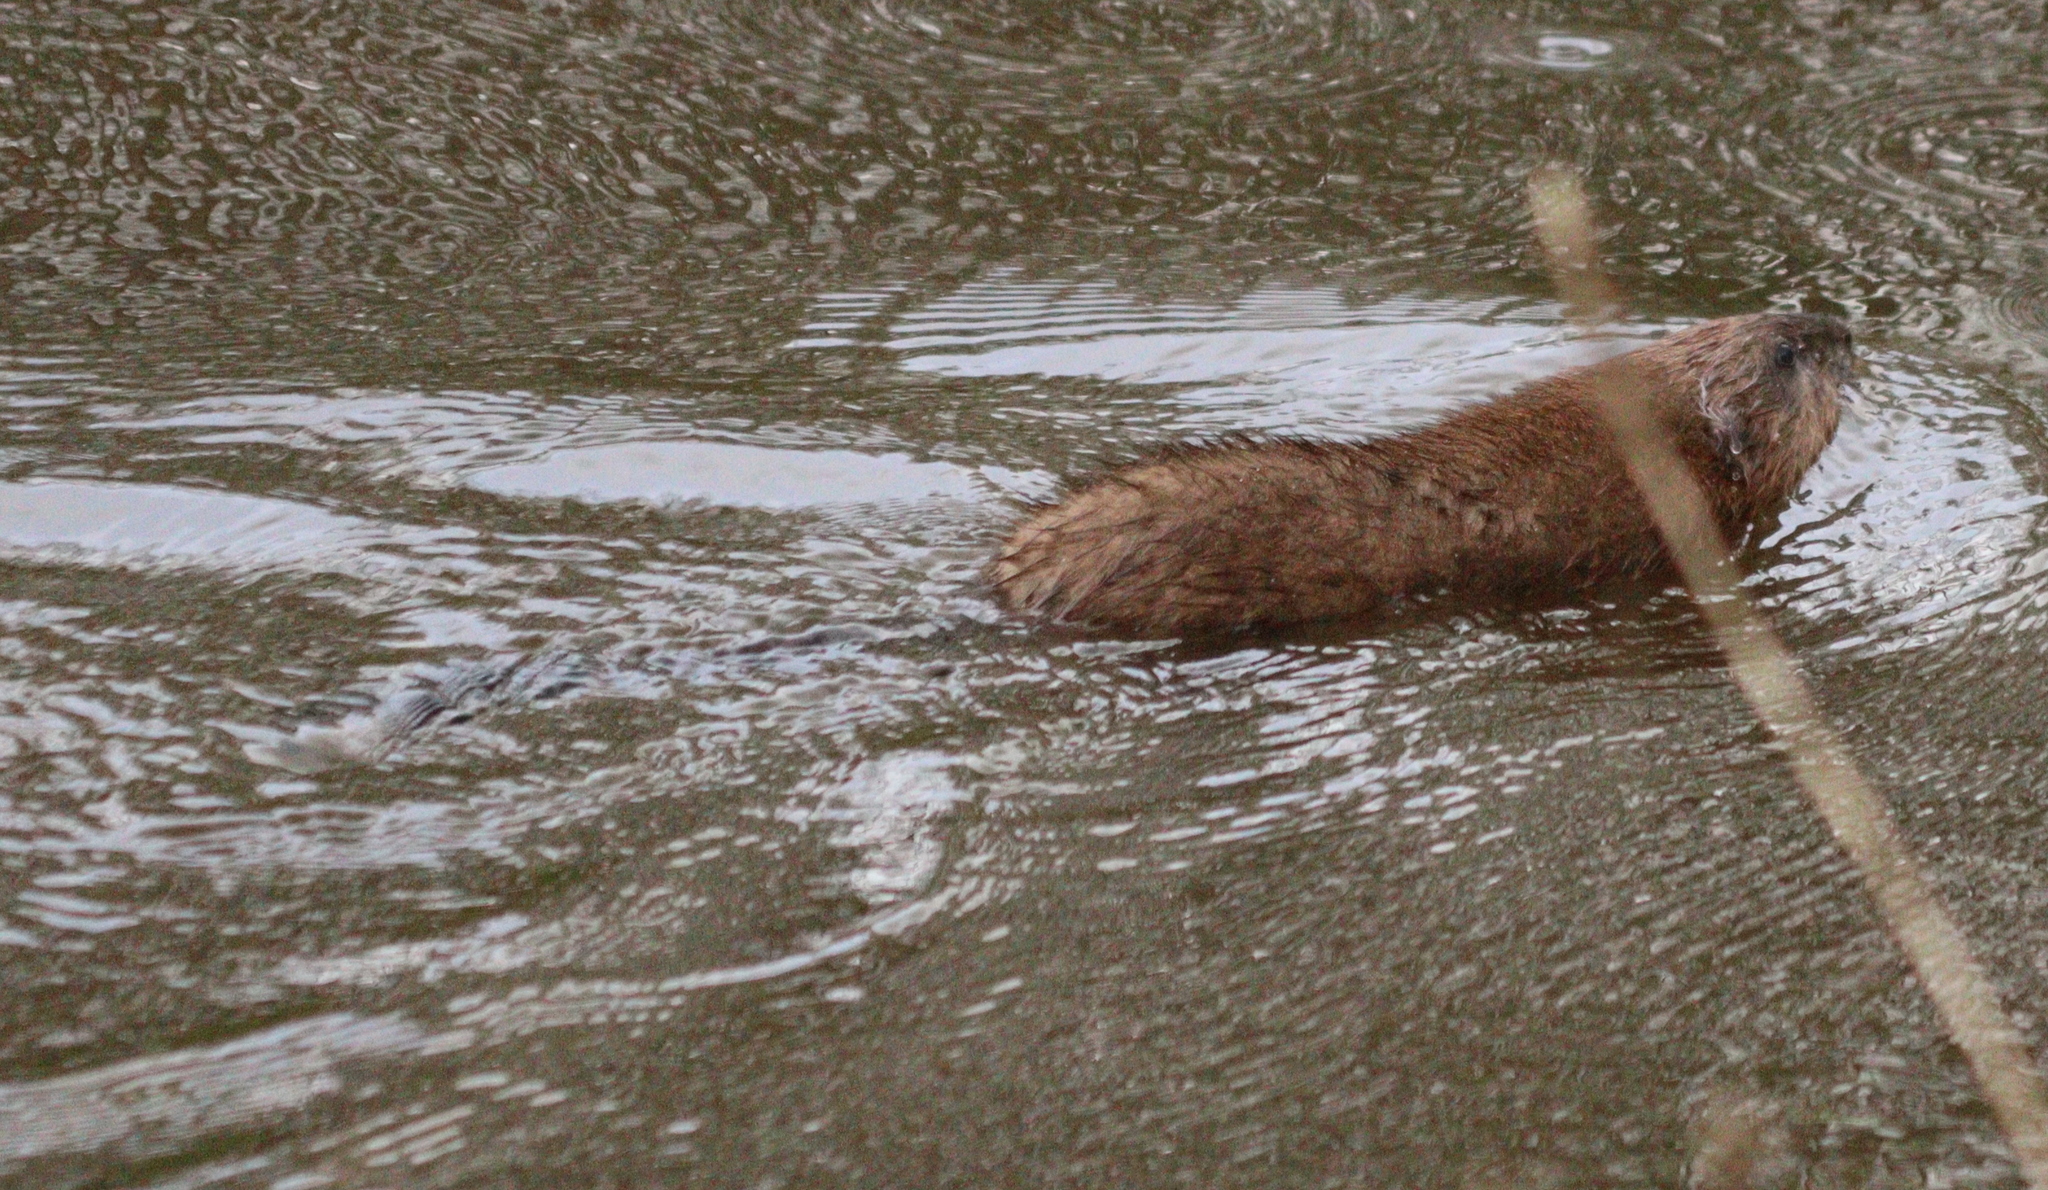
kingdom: Animalia
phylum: Chordata
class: Mammalia
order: Rodentia
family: Cricetidae
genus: Ondatra
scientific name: Ondatra zibethicus
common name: Muskrat
